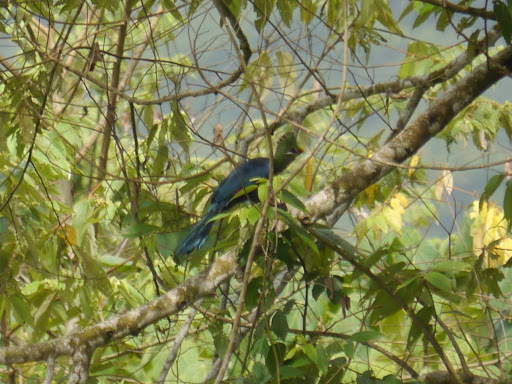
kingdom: Animalia
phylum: Chordata
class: Aves
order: Musophagiformes
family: Musophagidae
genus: Tauraco
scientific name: Tauraco macrorhynchus
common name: Yellow-billed turaco
